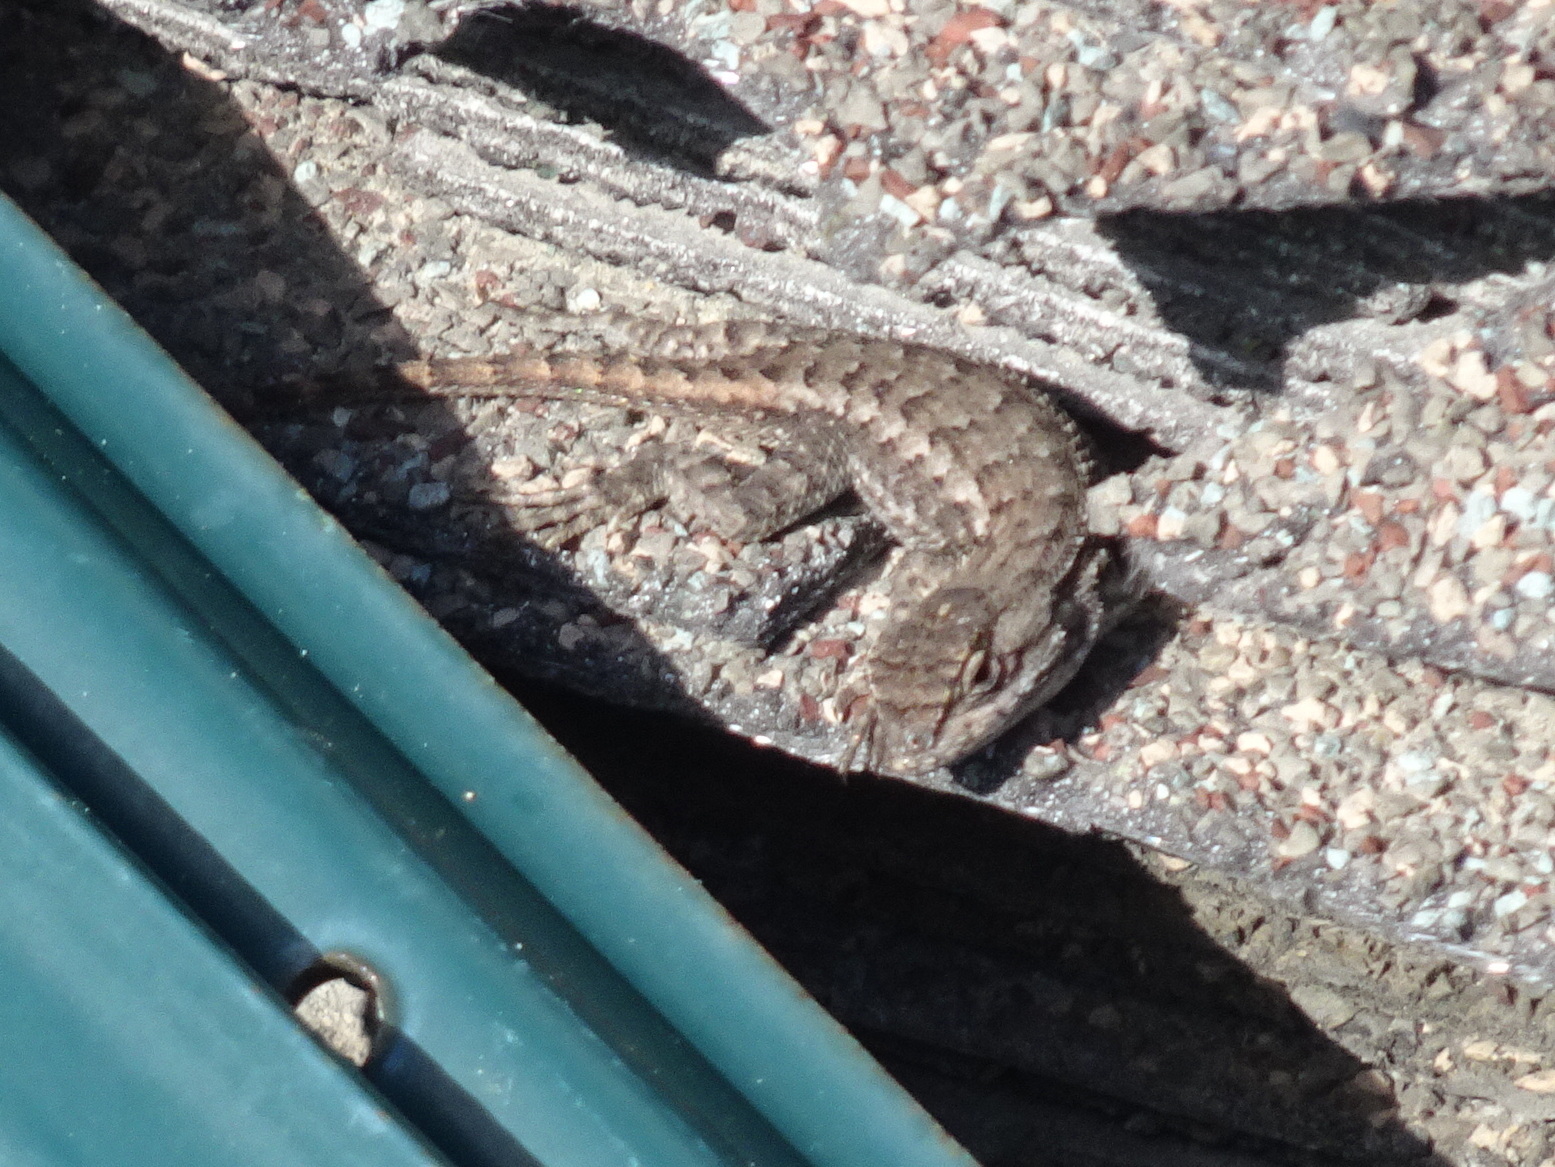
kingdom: Animalia
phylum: Chordata
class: Squamata
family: Phrynosomatidae
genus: Sceloporus
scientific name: Sceloporus occidentalis
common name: Western fence lizard
